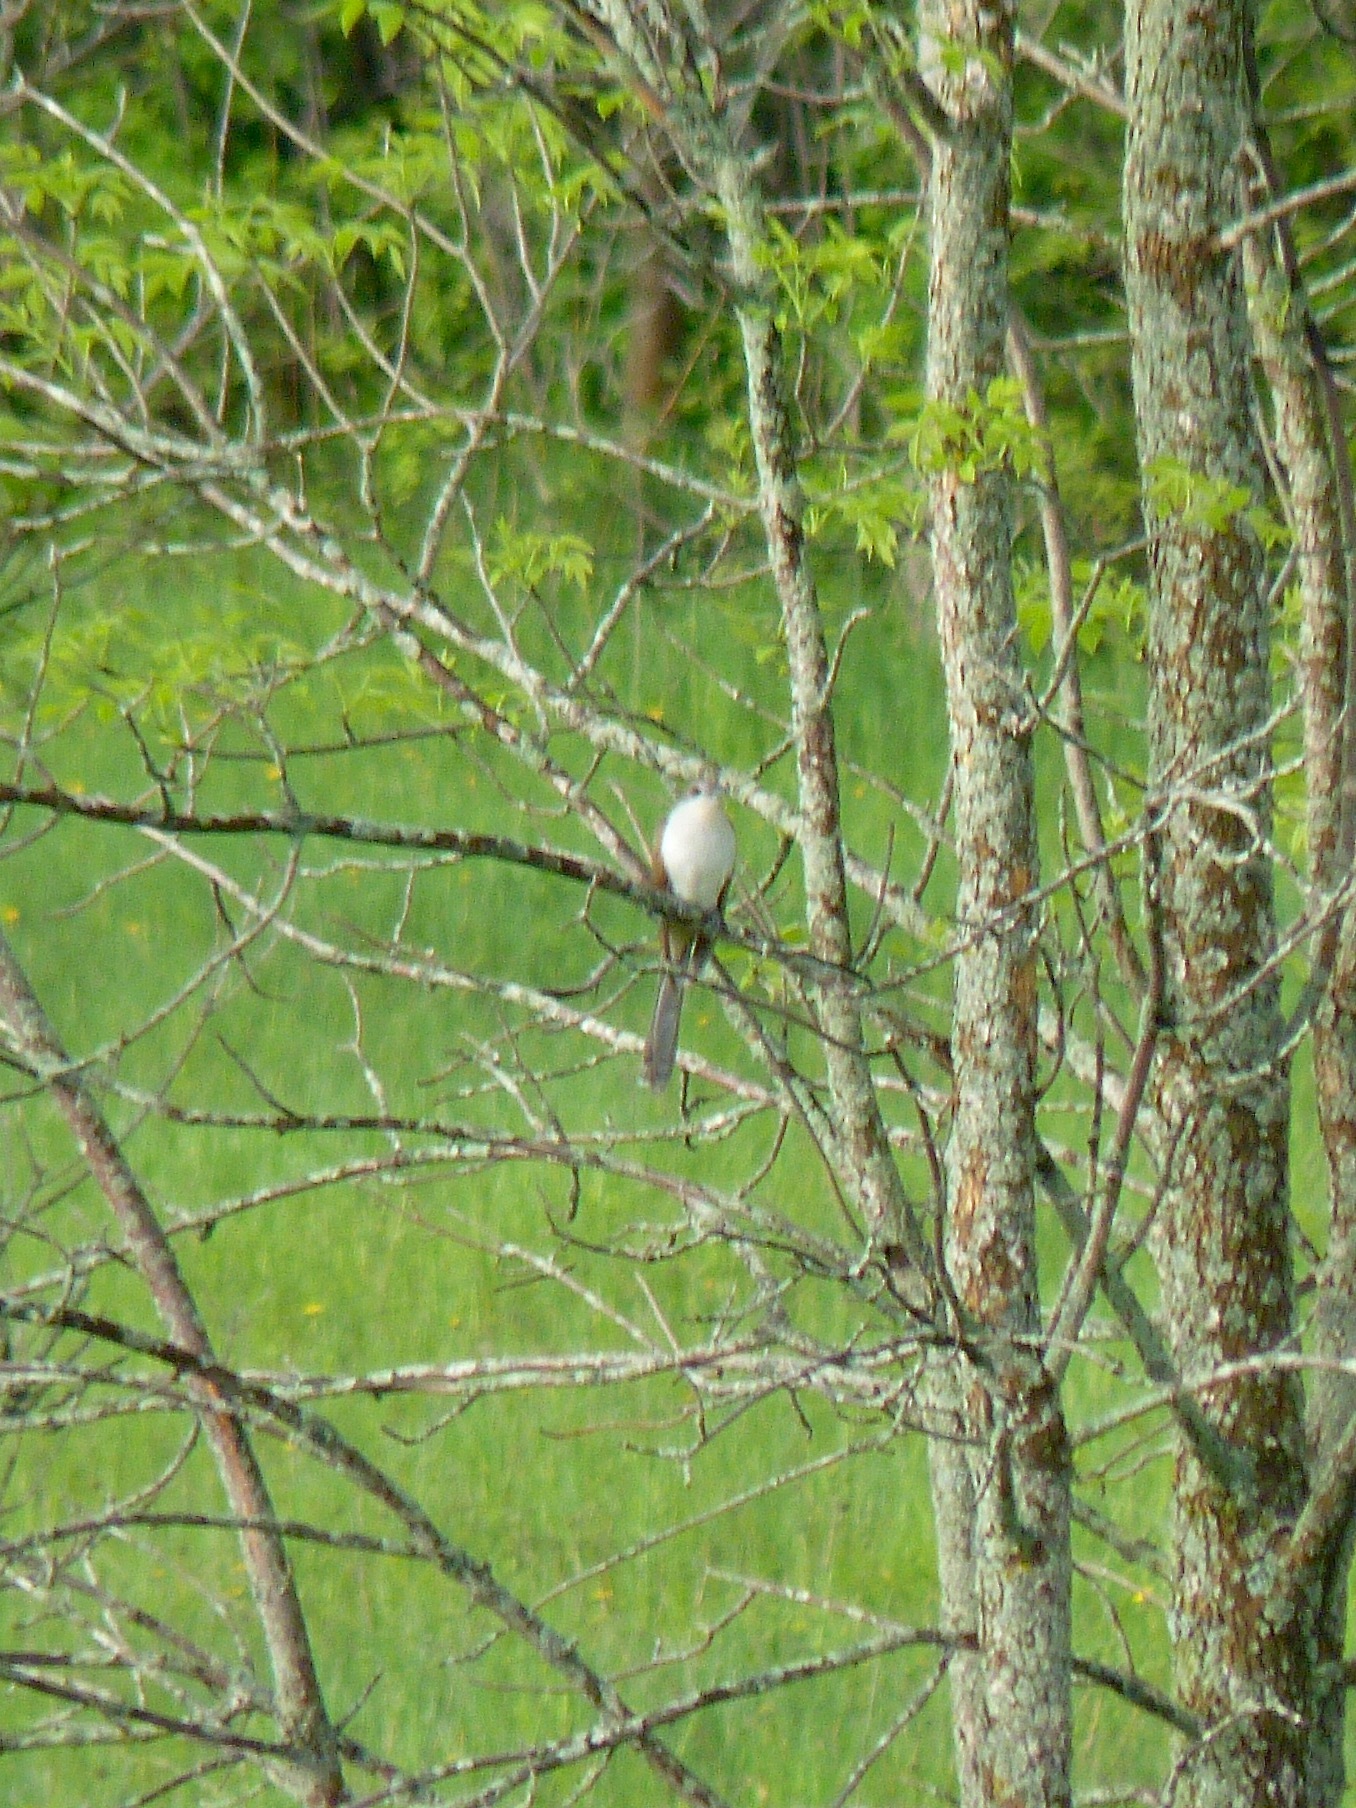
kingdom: Animalia
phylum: Chordata
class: Aves
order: Cuculiformes
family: Cuculidae
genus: Coccyzus
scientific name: Coccyzus erythropthalmus
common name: Black-billed cuckoo
